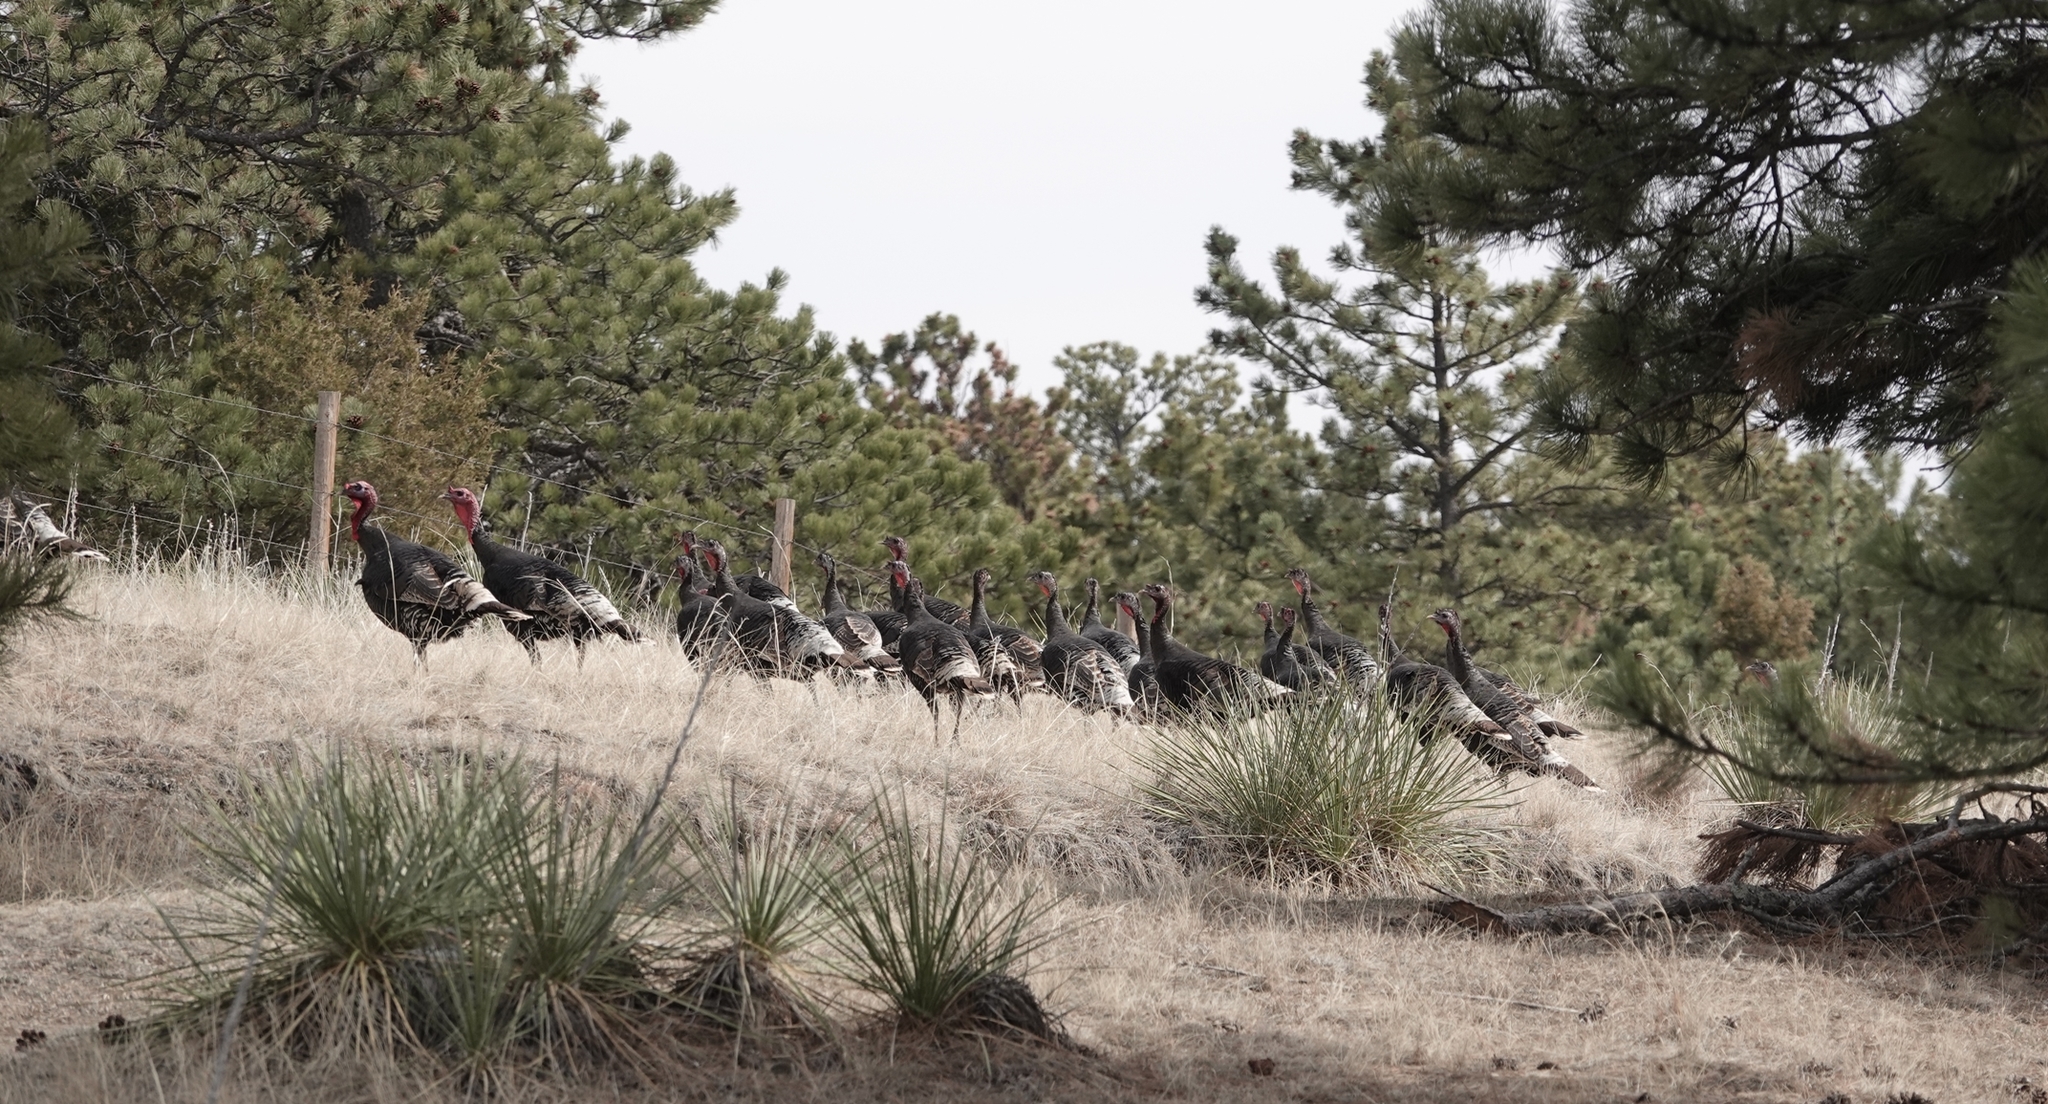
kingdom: Animalia
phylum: Chordata
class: Aves
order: Galliformes
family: Phasianidae
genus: Meleagris
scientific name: Meleagris gallopavo
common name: Wild turkey
